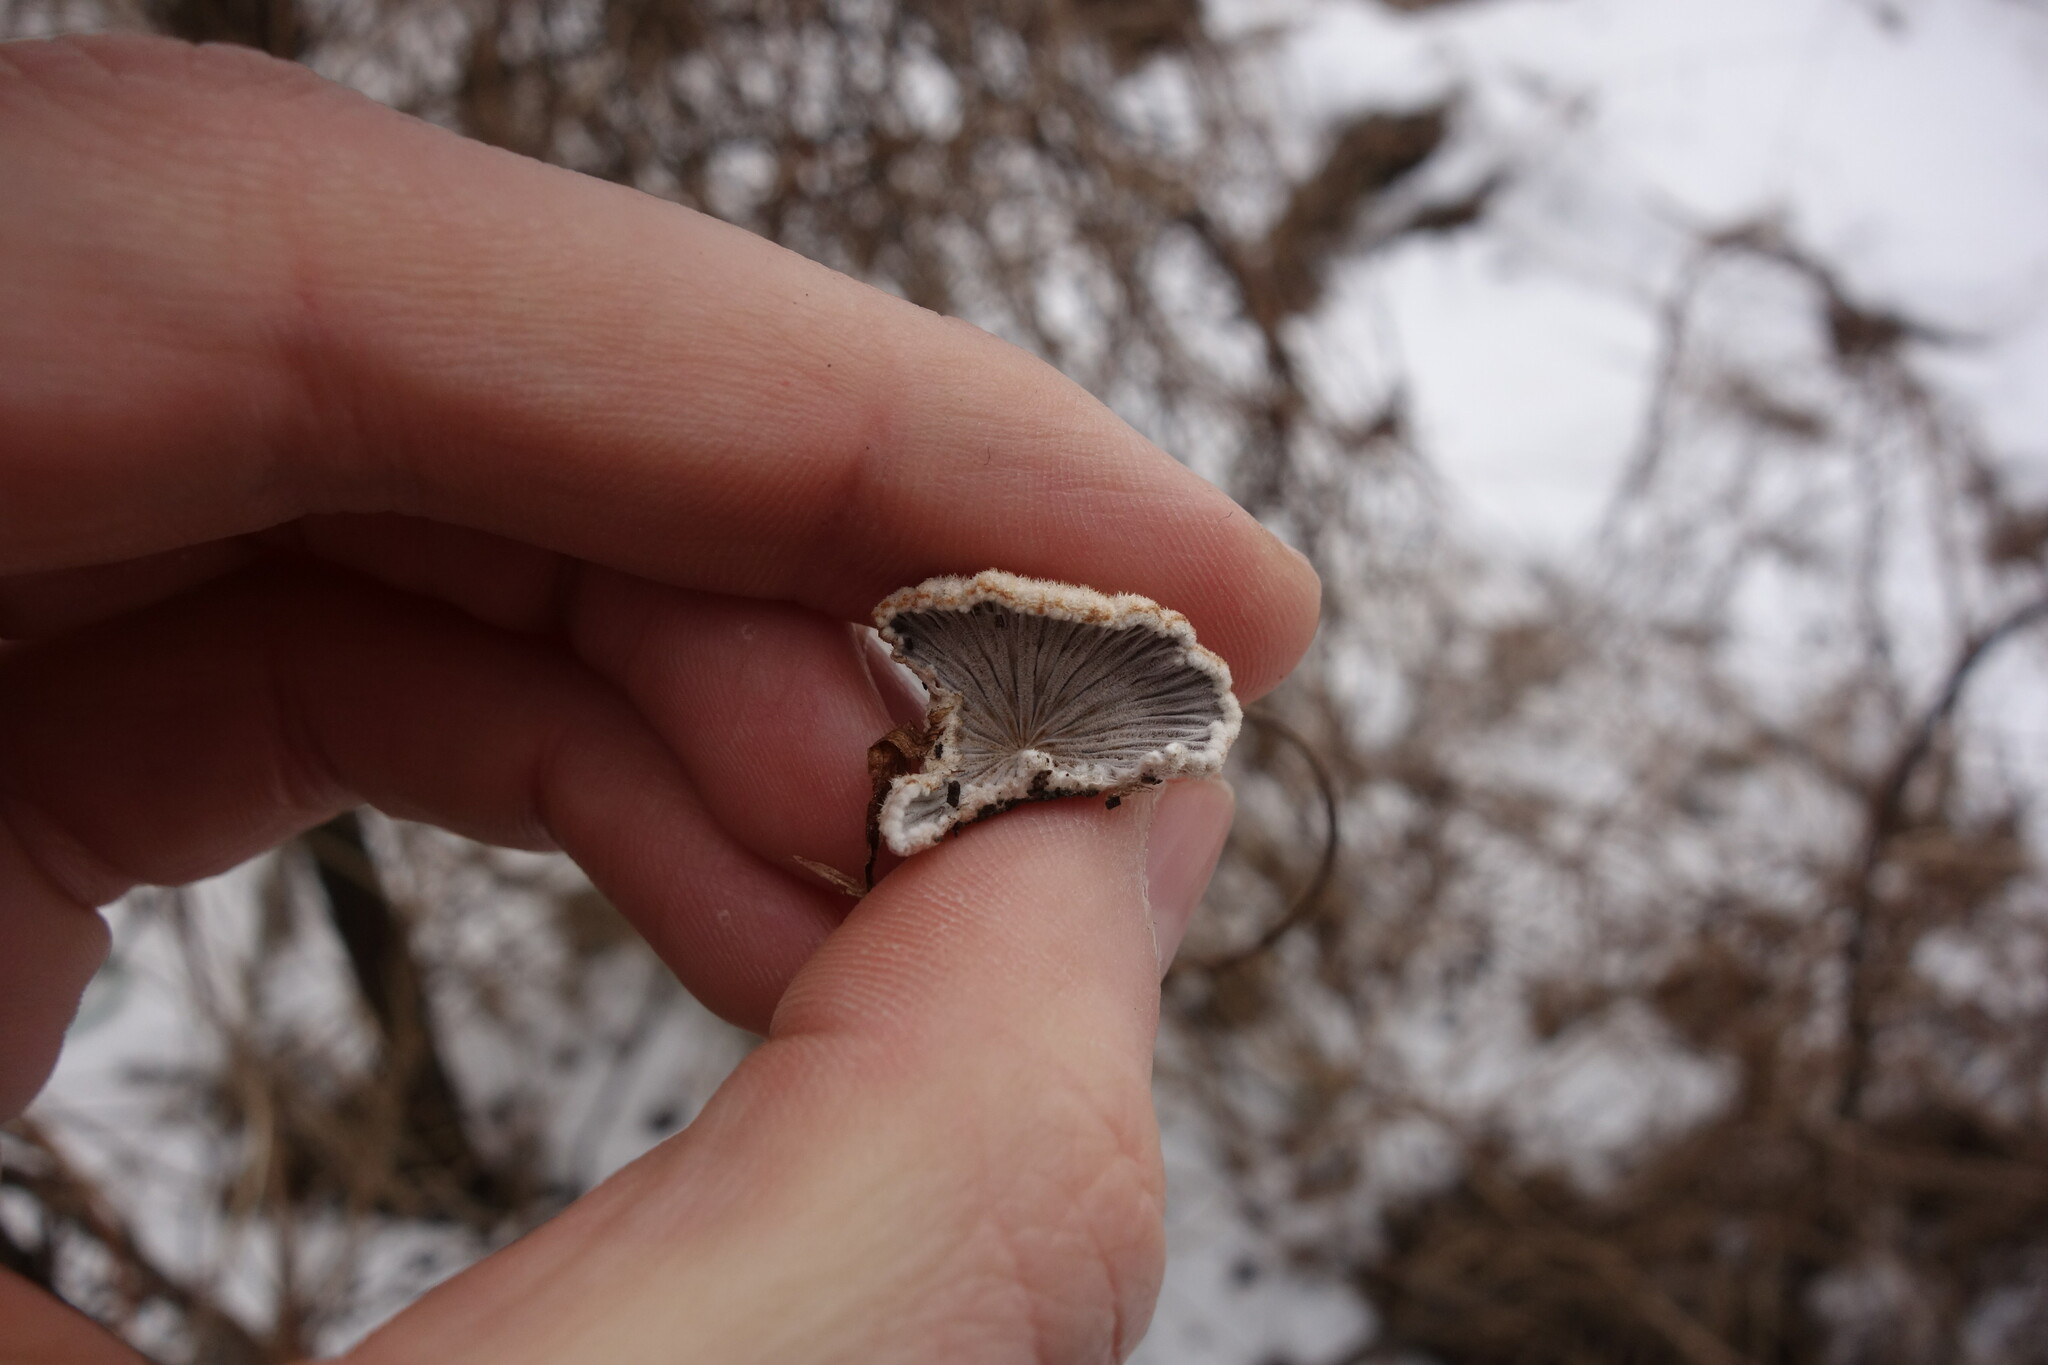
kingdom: Fungi
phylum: Basidiomycota
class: Agaricomycetes
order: Agaricales
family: Schizophyllaceae
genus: Schizophyllum
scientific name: Schizophyllum commune
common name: Common porecrust
